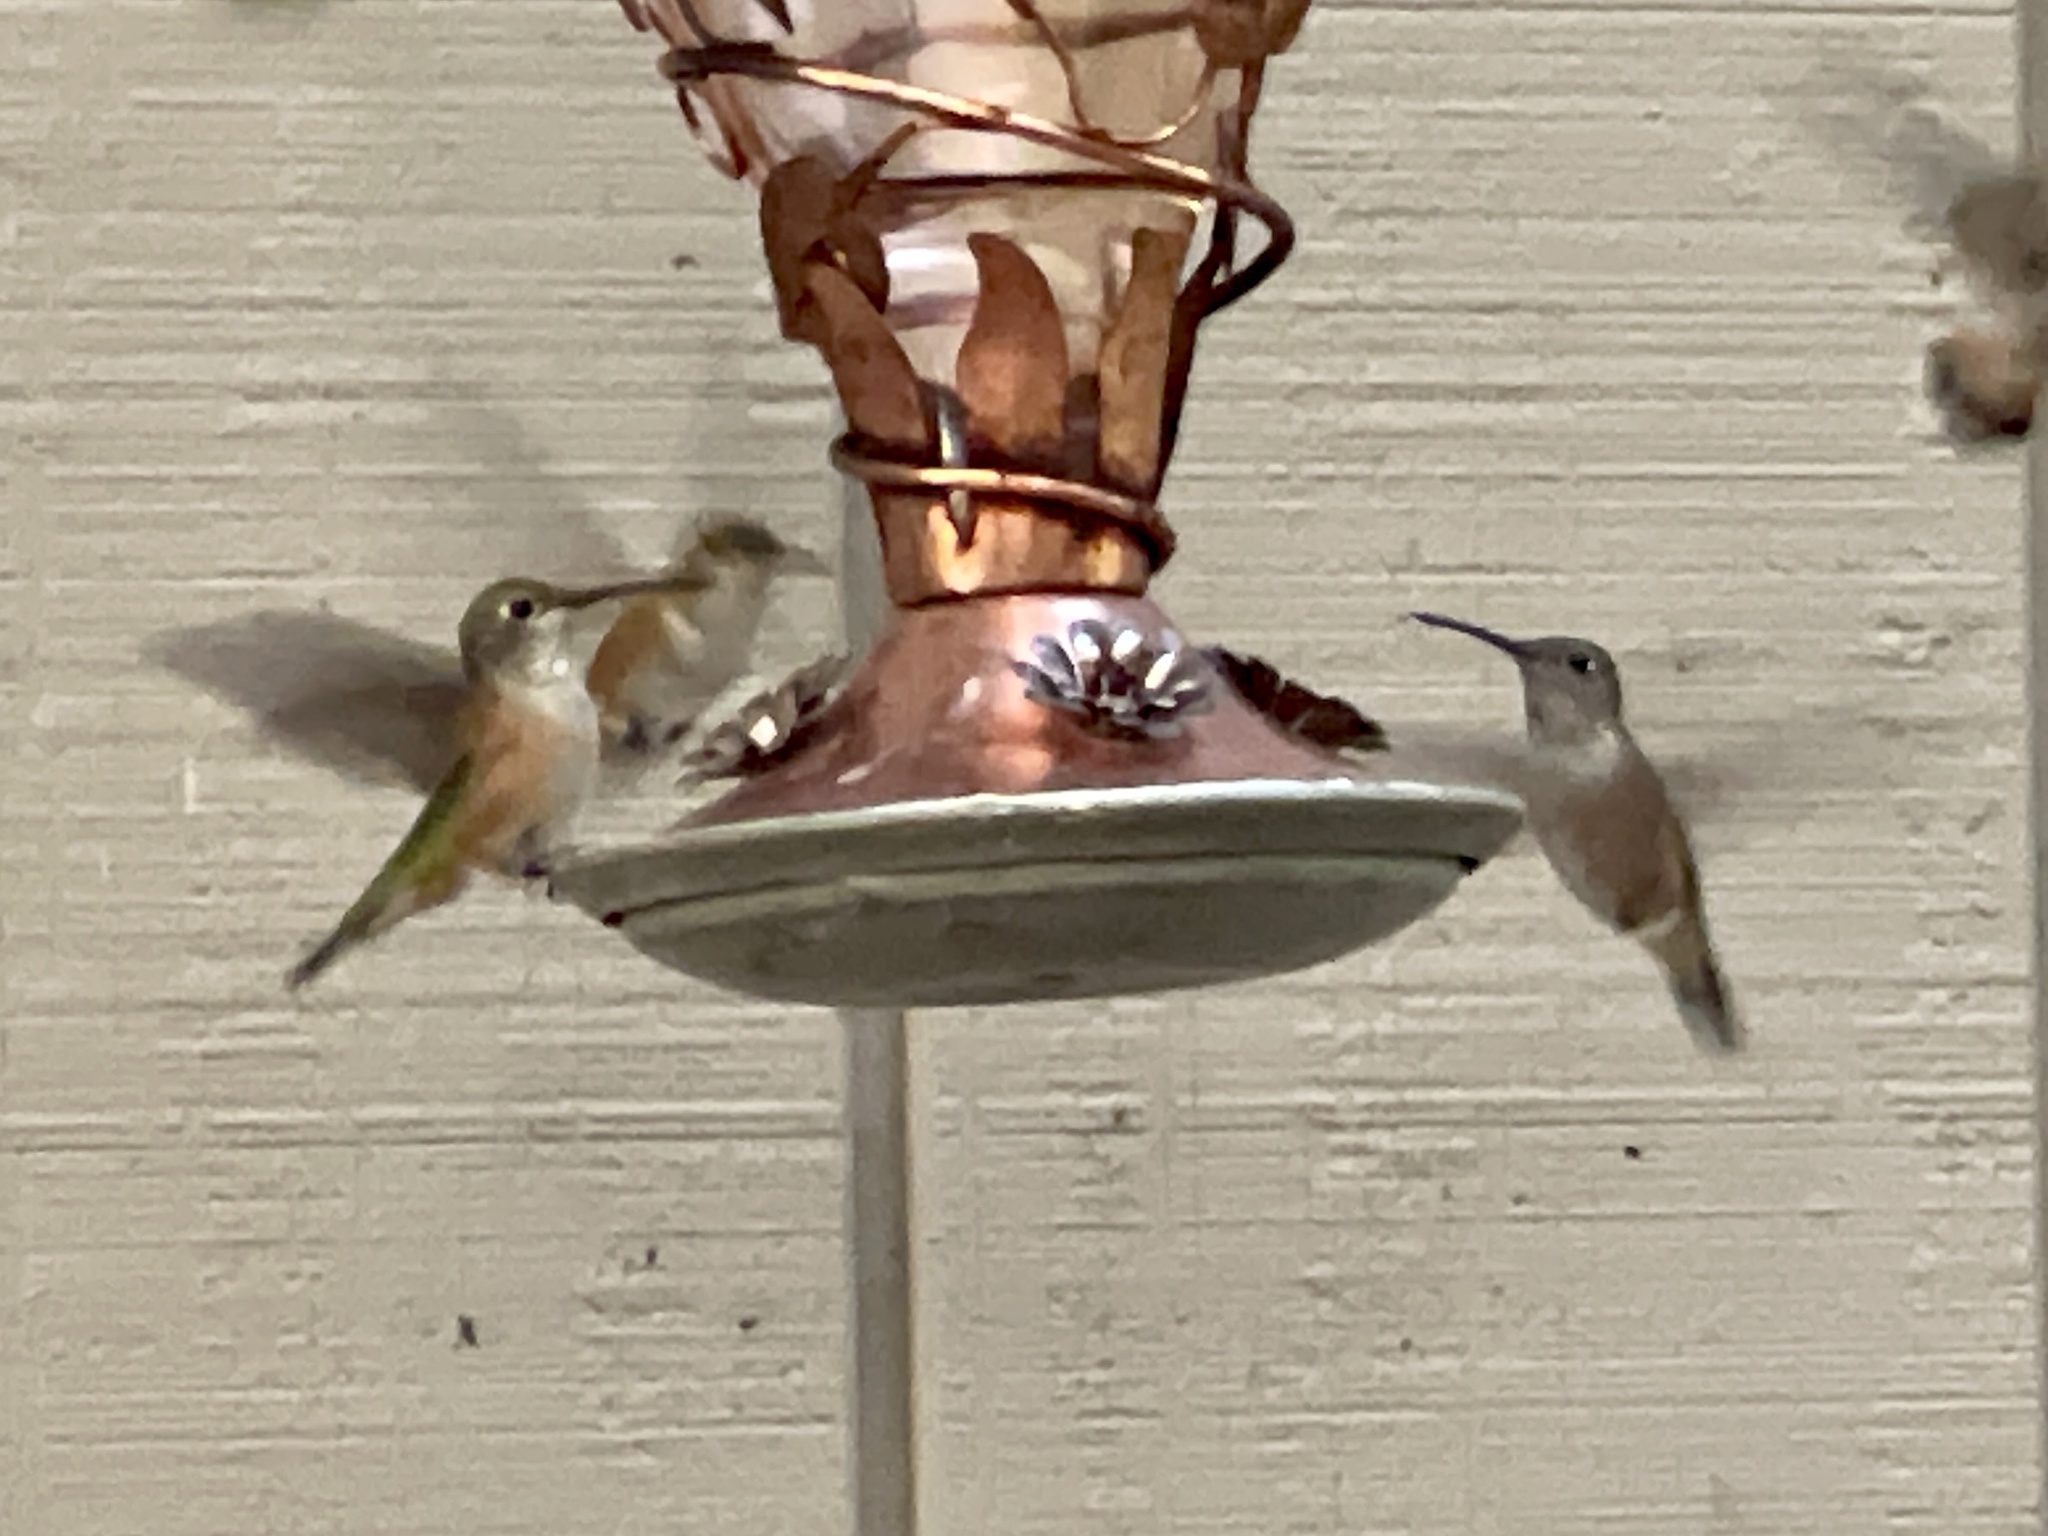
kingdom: Animalia
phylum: Chordata
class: Aves
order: Apodiformes
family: Trochilidae
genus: Selasphorus
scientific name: Selasphorus platycercus
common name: Broad-tailed hummingbird
